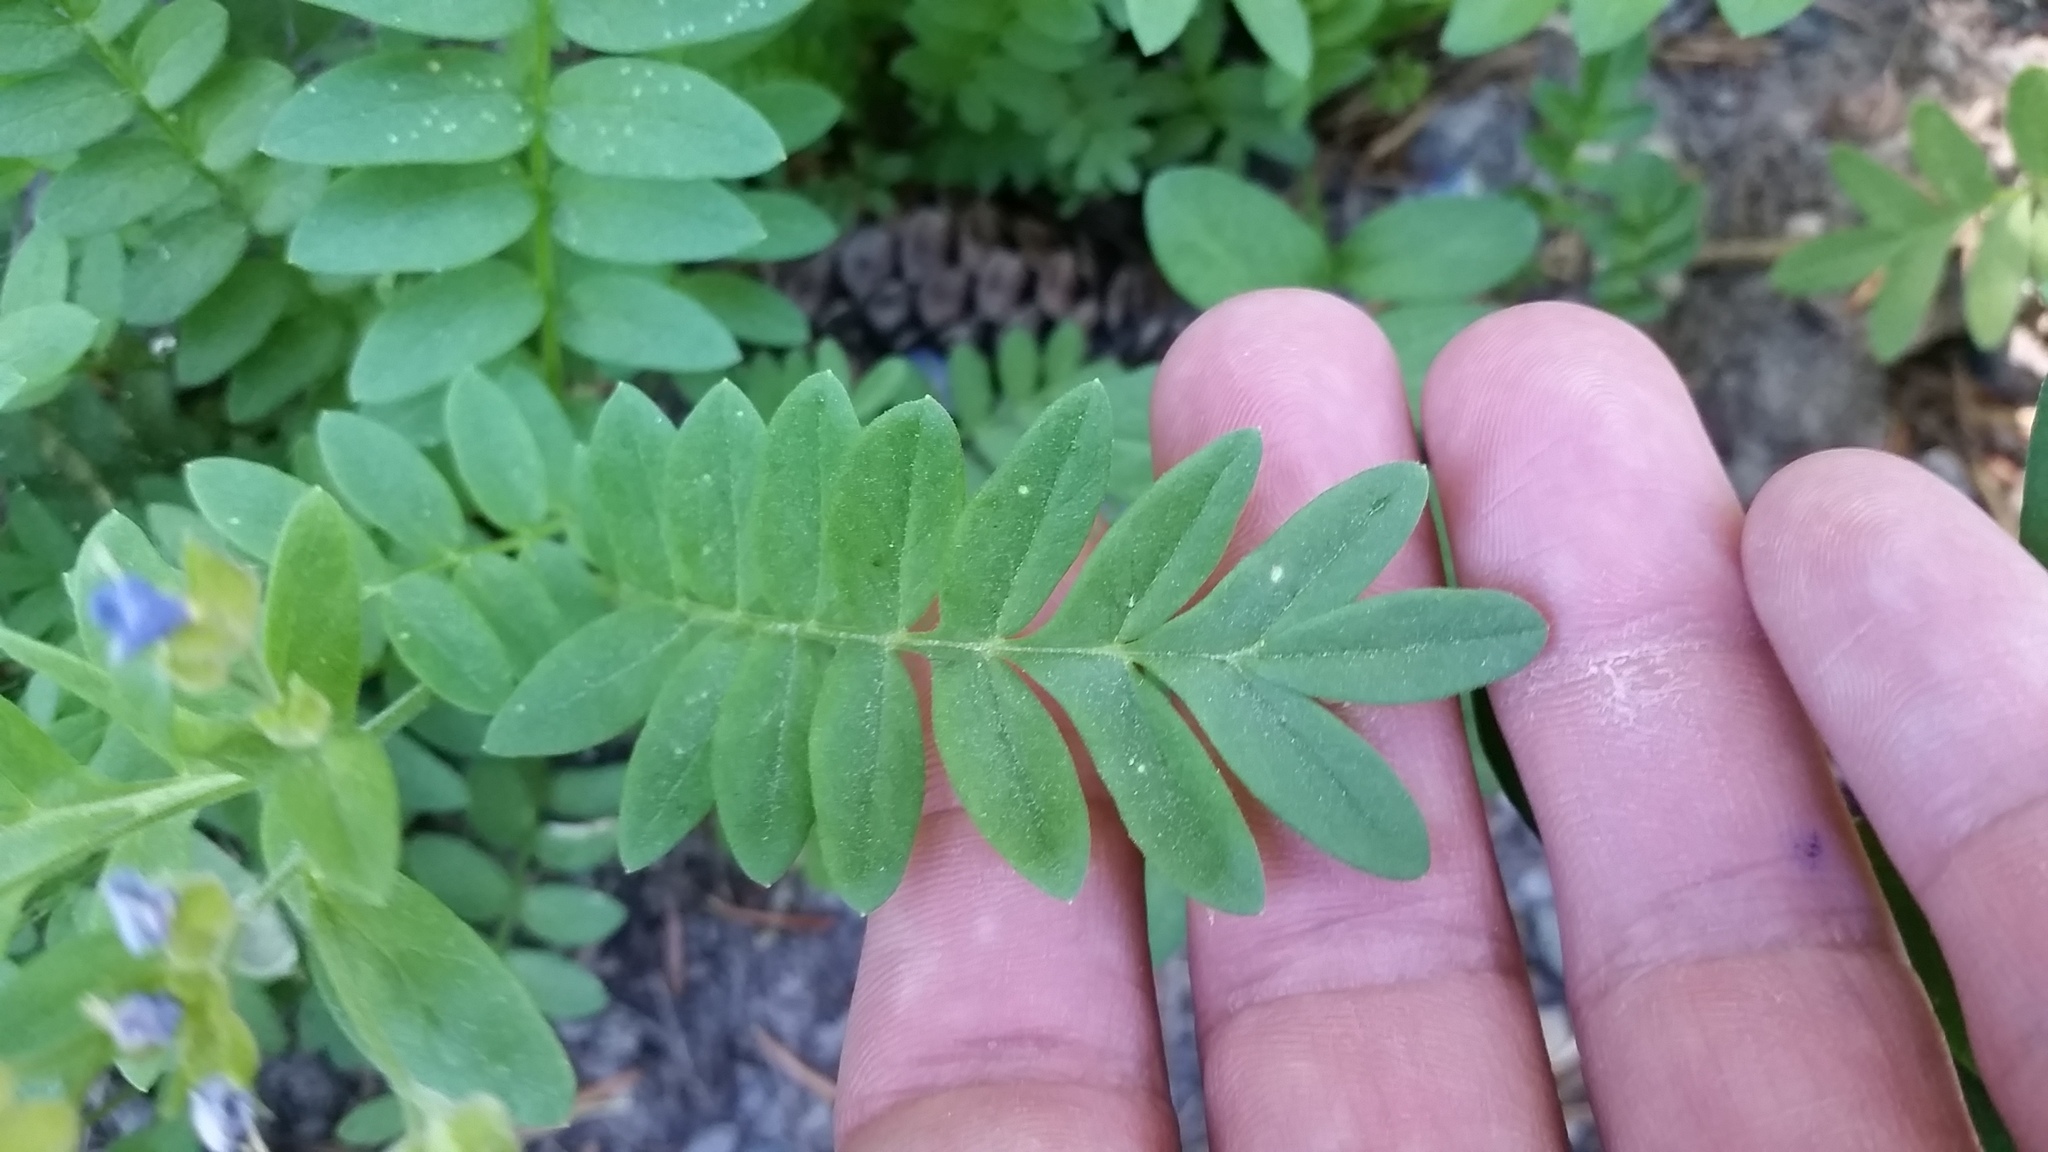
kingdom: Plantae
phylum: Tracheophyta
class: Magnoliopsida
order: Ericales
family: Polemoniaceae
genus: Polemonium
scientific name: Polemonium californicum
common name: California jacob's ladder
